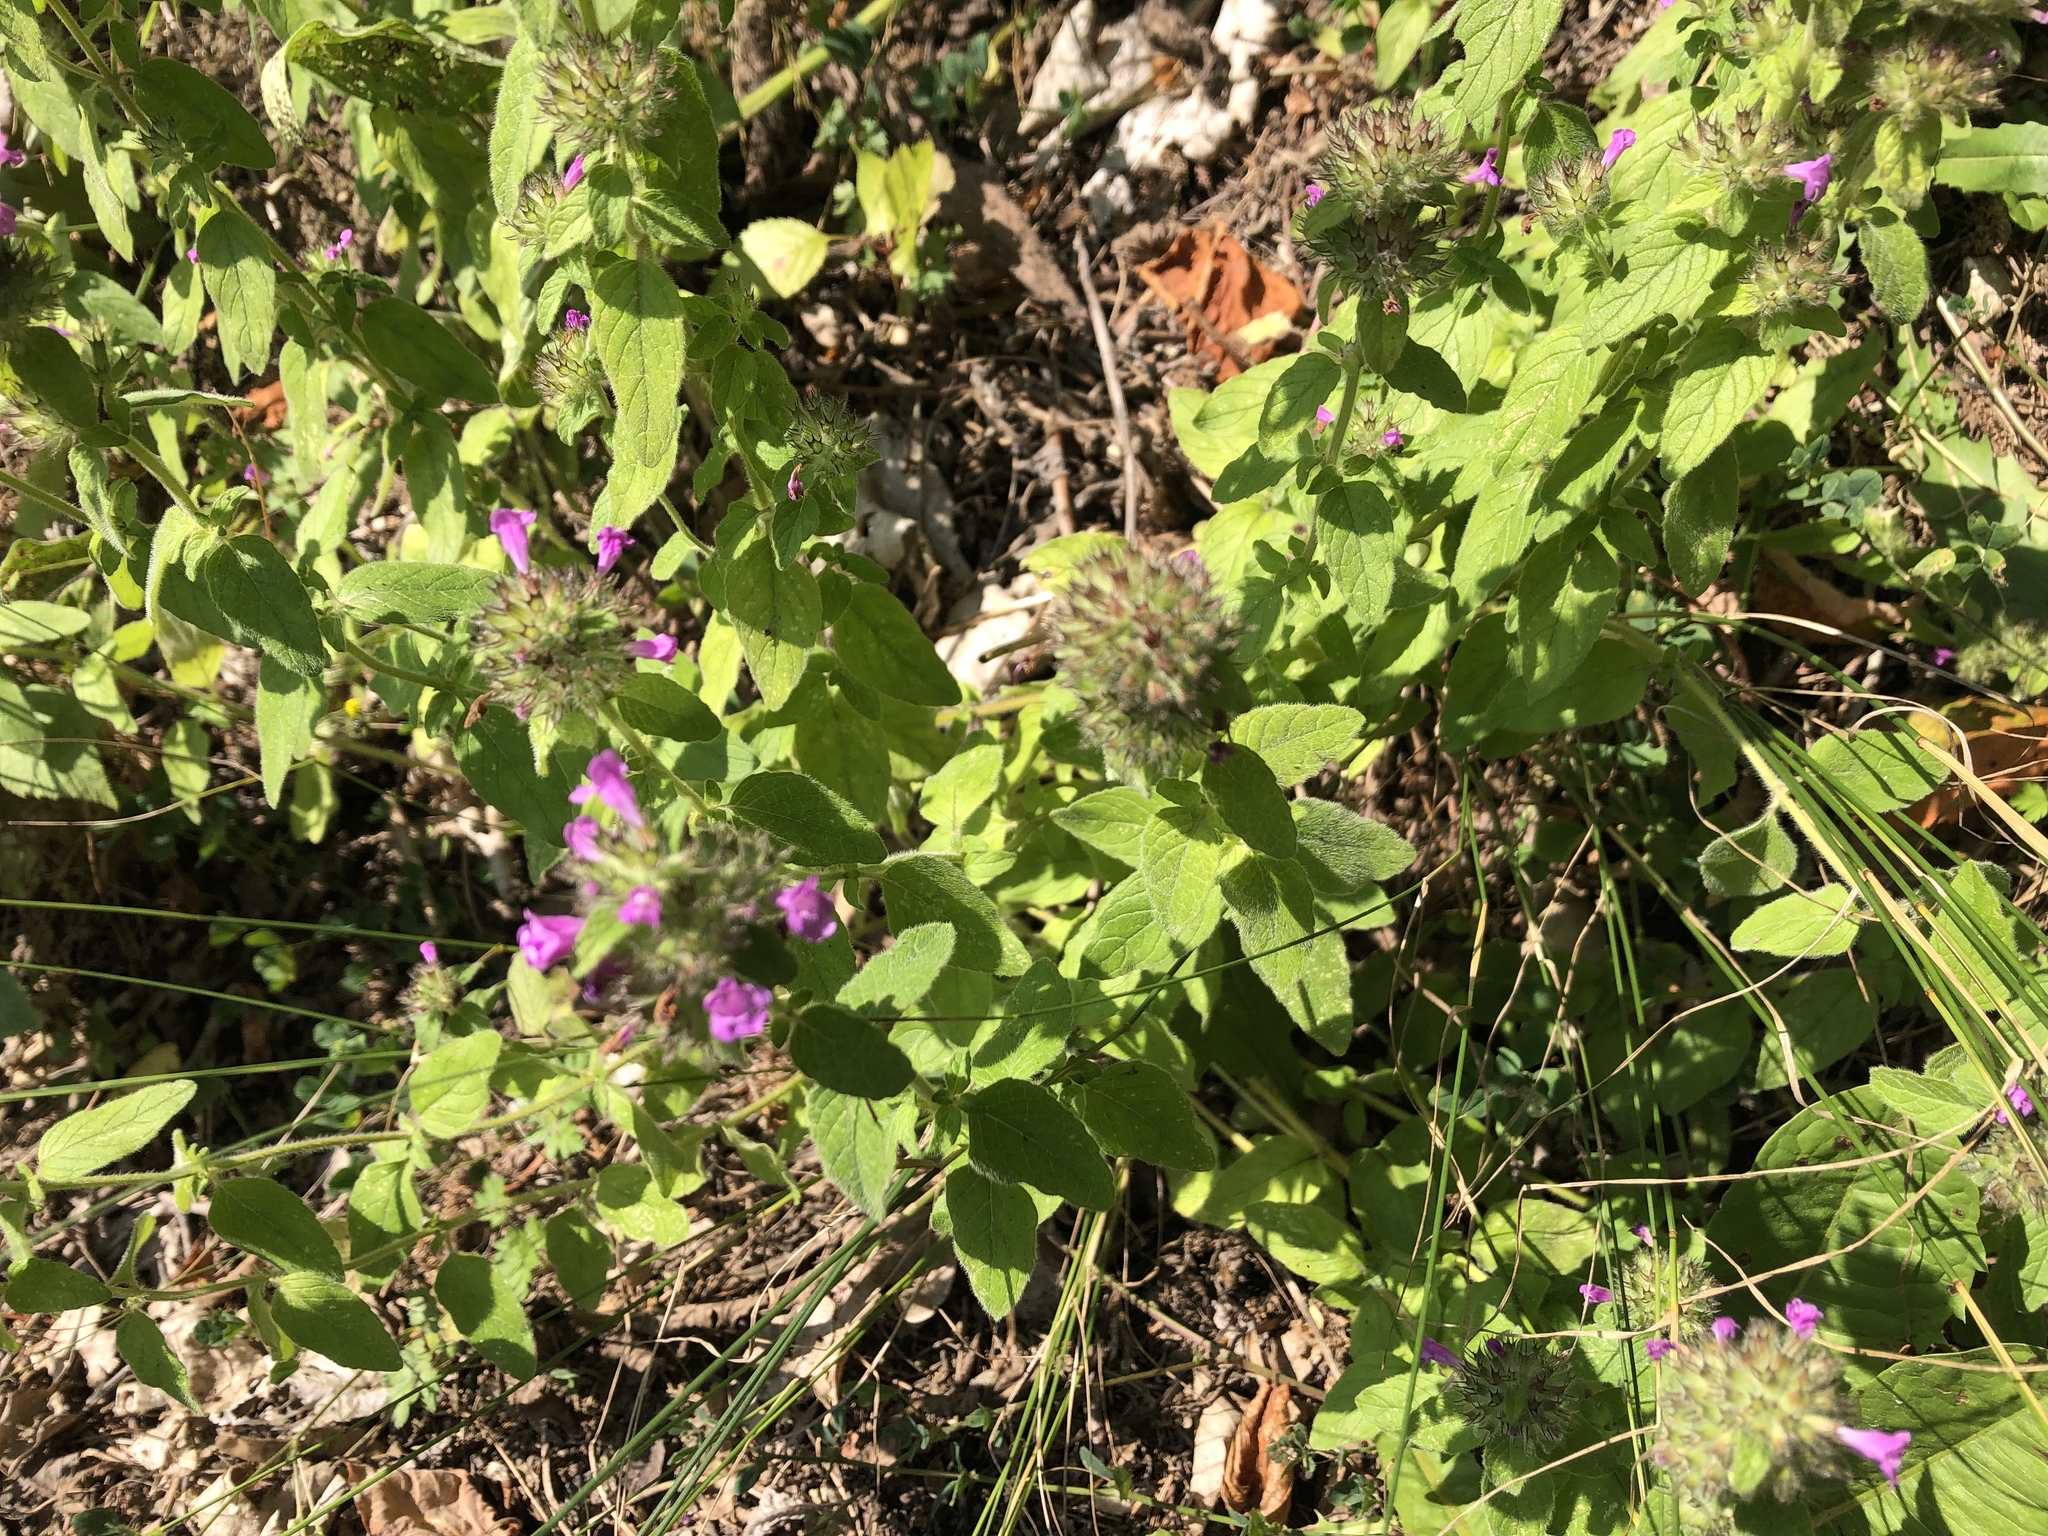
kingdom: Plantae
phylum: Tracheophyta
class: Magnoliopsida
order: Lamiales
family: Lamiaceae
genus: Clinopodium
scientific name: Clinopodium vulgare
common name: Wild basil
